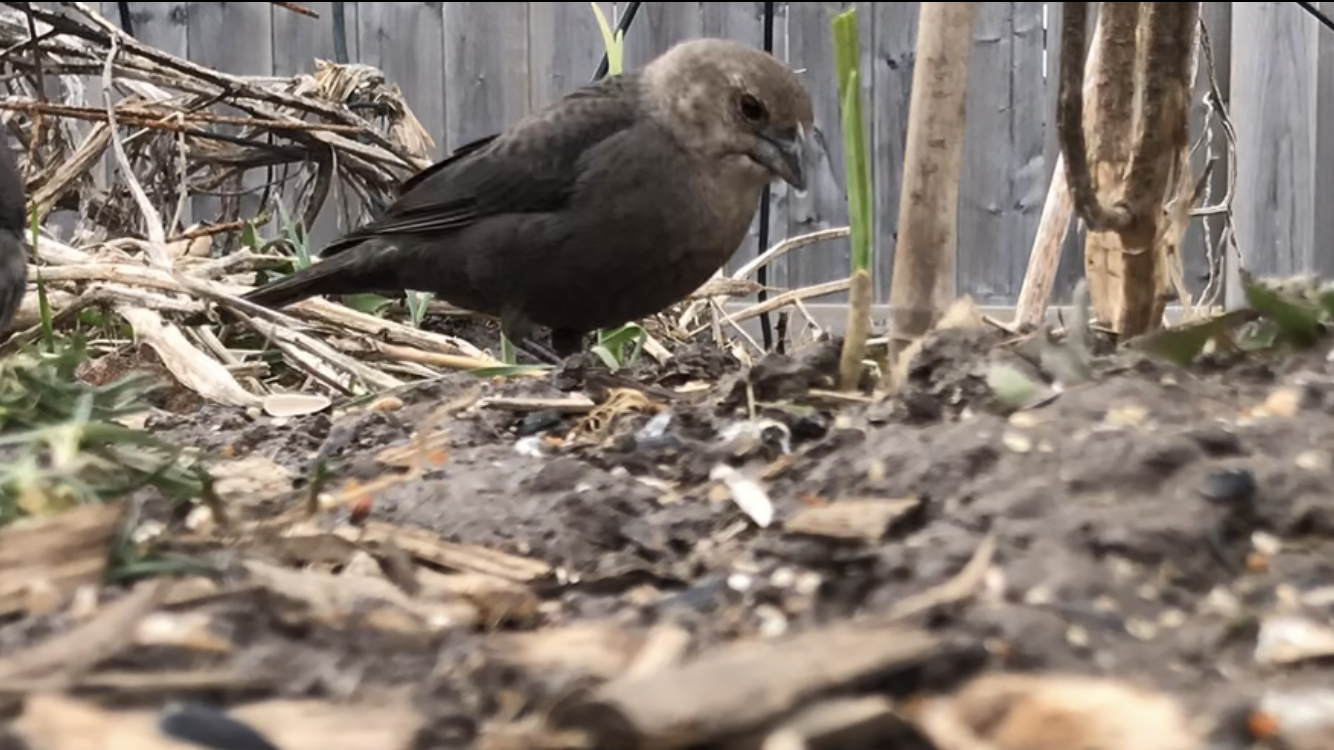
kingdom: Animalia
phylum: Chordata
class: Aves
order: Passeriformes
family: Icteridae
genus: Molothrus
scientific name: Molothrus ater
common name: Brown-headed cowbird
